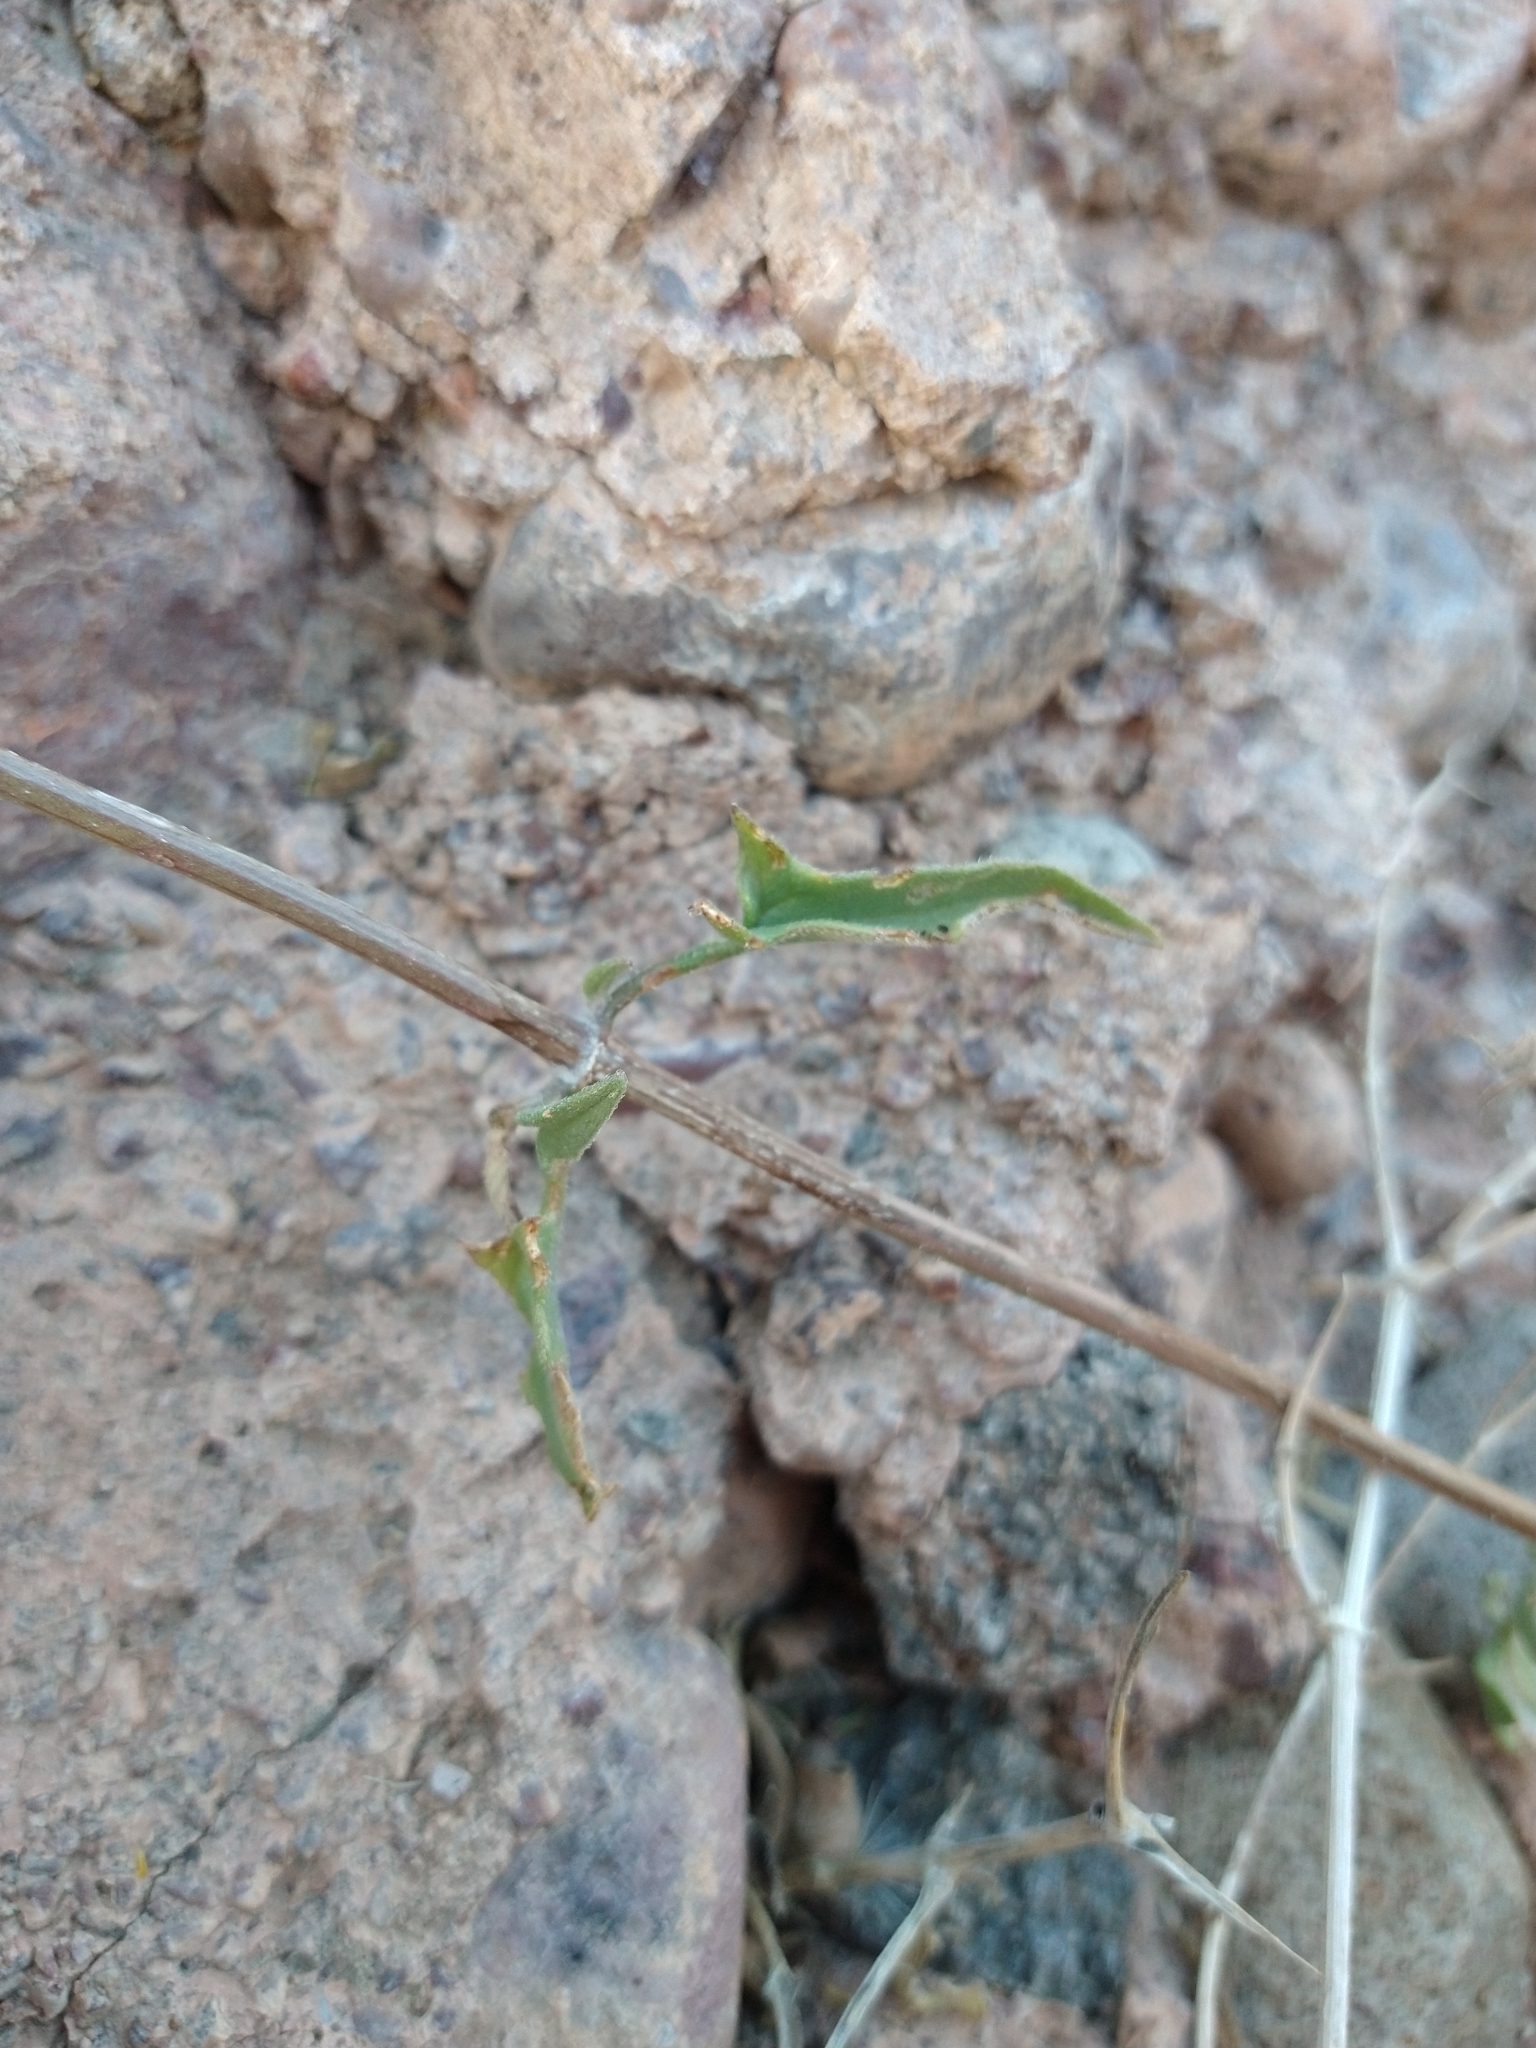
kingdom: Plantae
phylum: Tracheophyta
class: Magnoliopsida
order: Asterales
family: Asteraceae
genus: Bebbia
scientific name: Bebbia atriplicifolia
